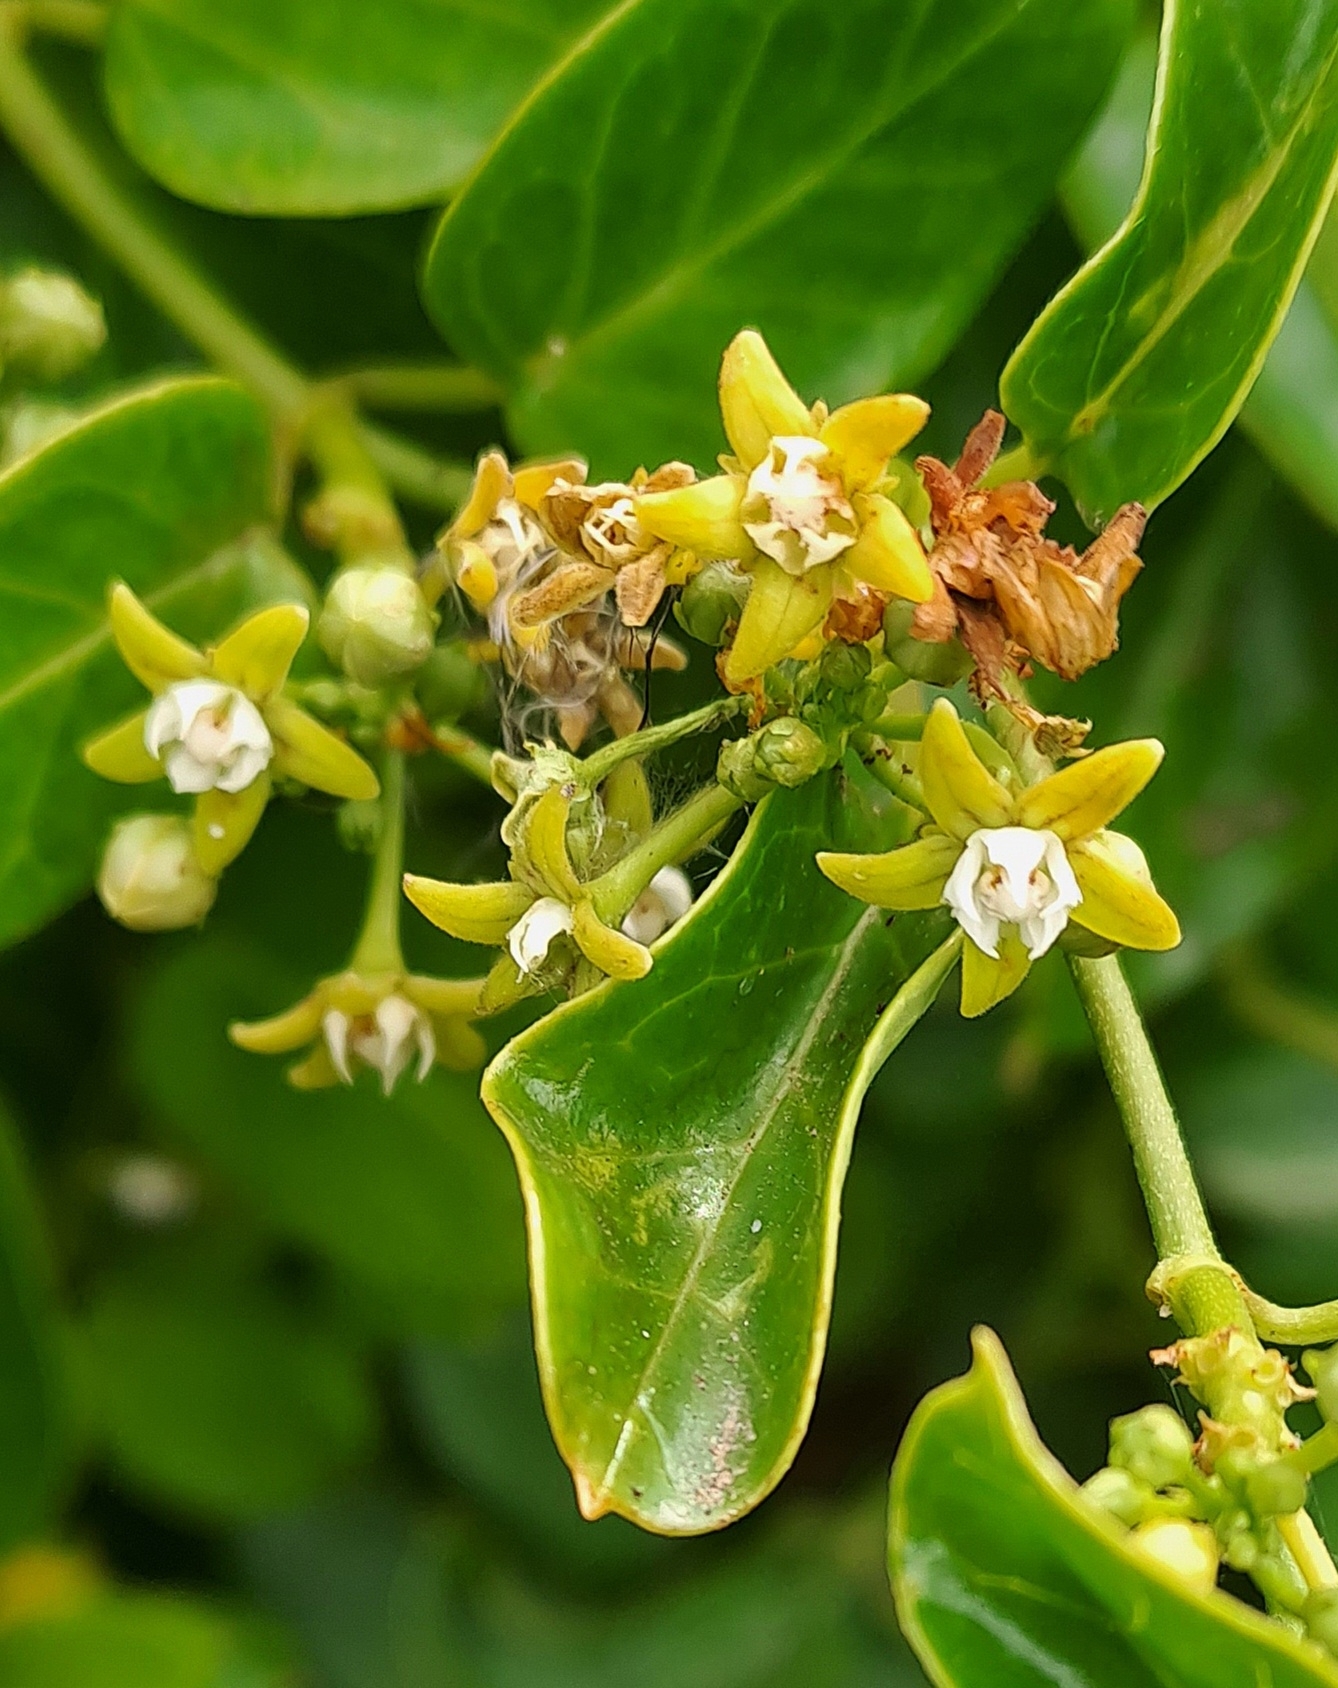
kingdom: Plantae
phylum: Tracheophyta
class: Magnoliopsida
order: Gentianales
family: Apocynaceae
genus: Cynanchum
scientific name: Cynanchum obtusifolium
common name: Monkey-rope
